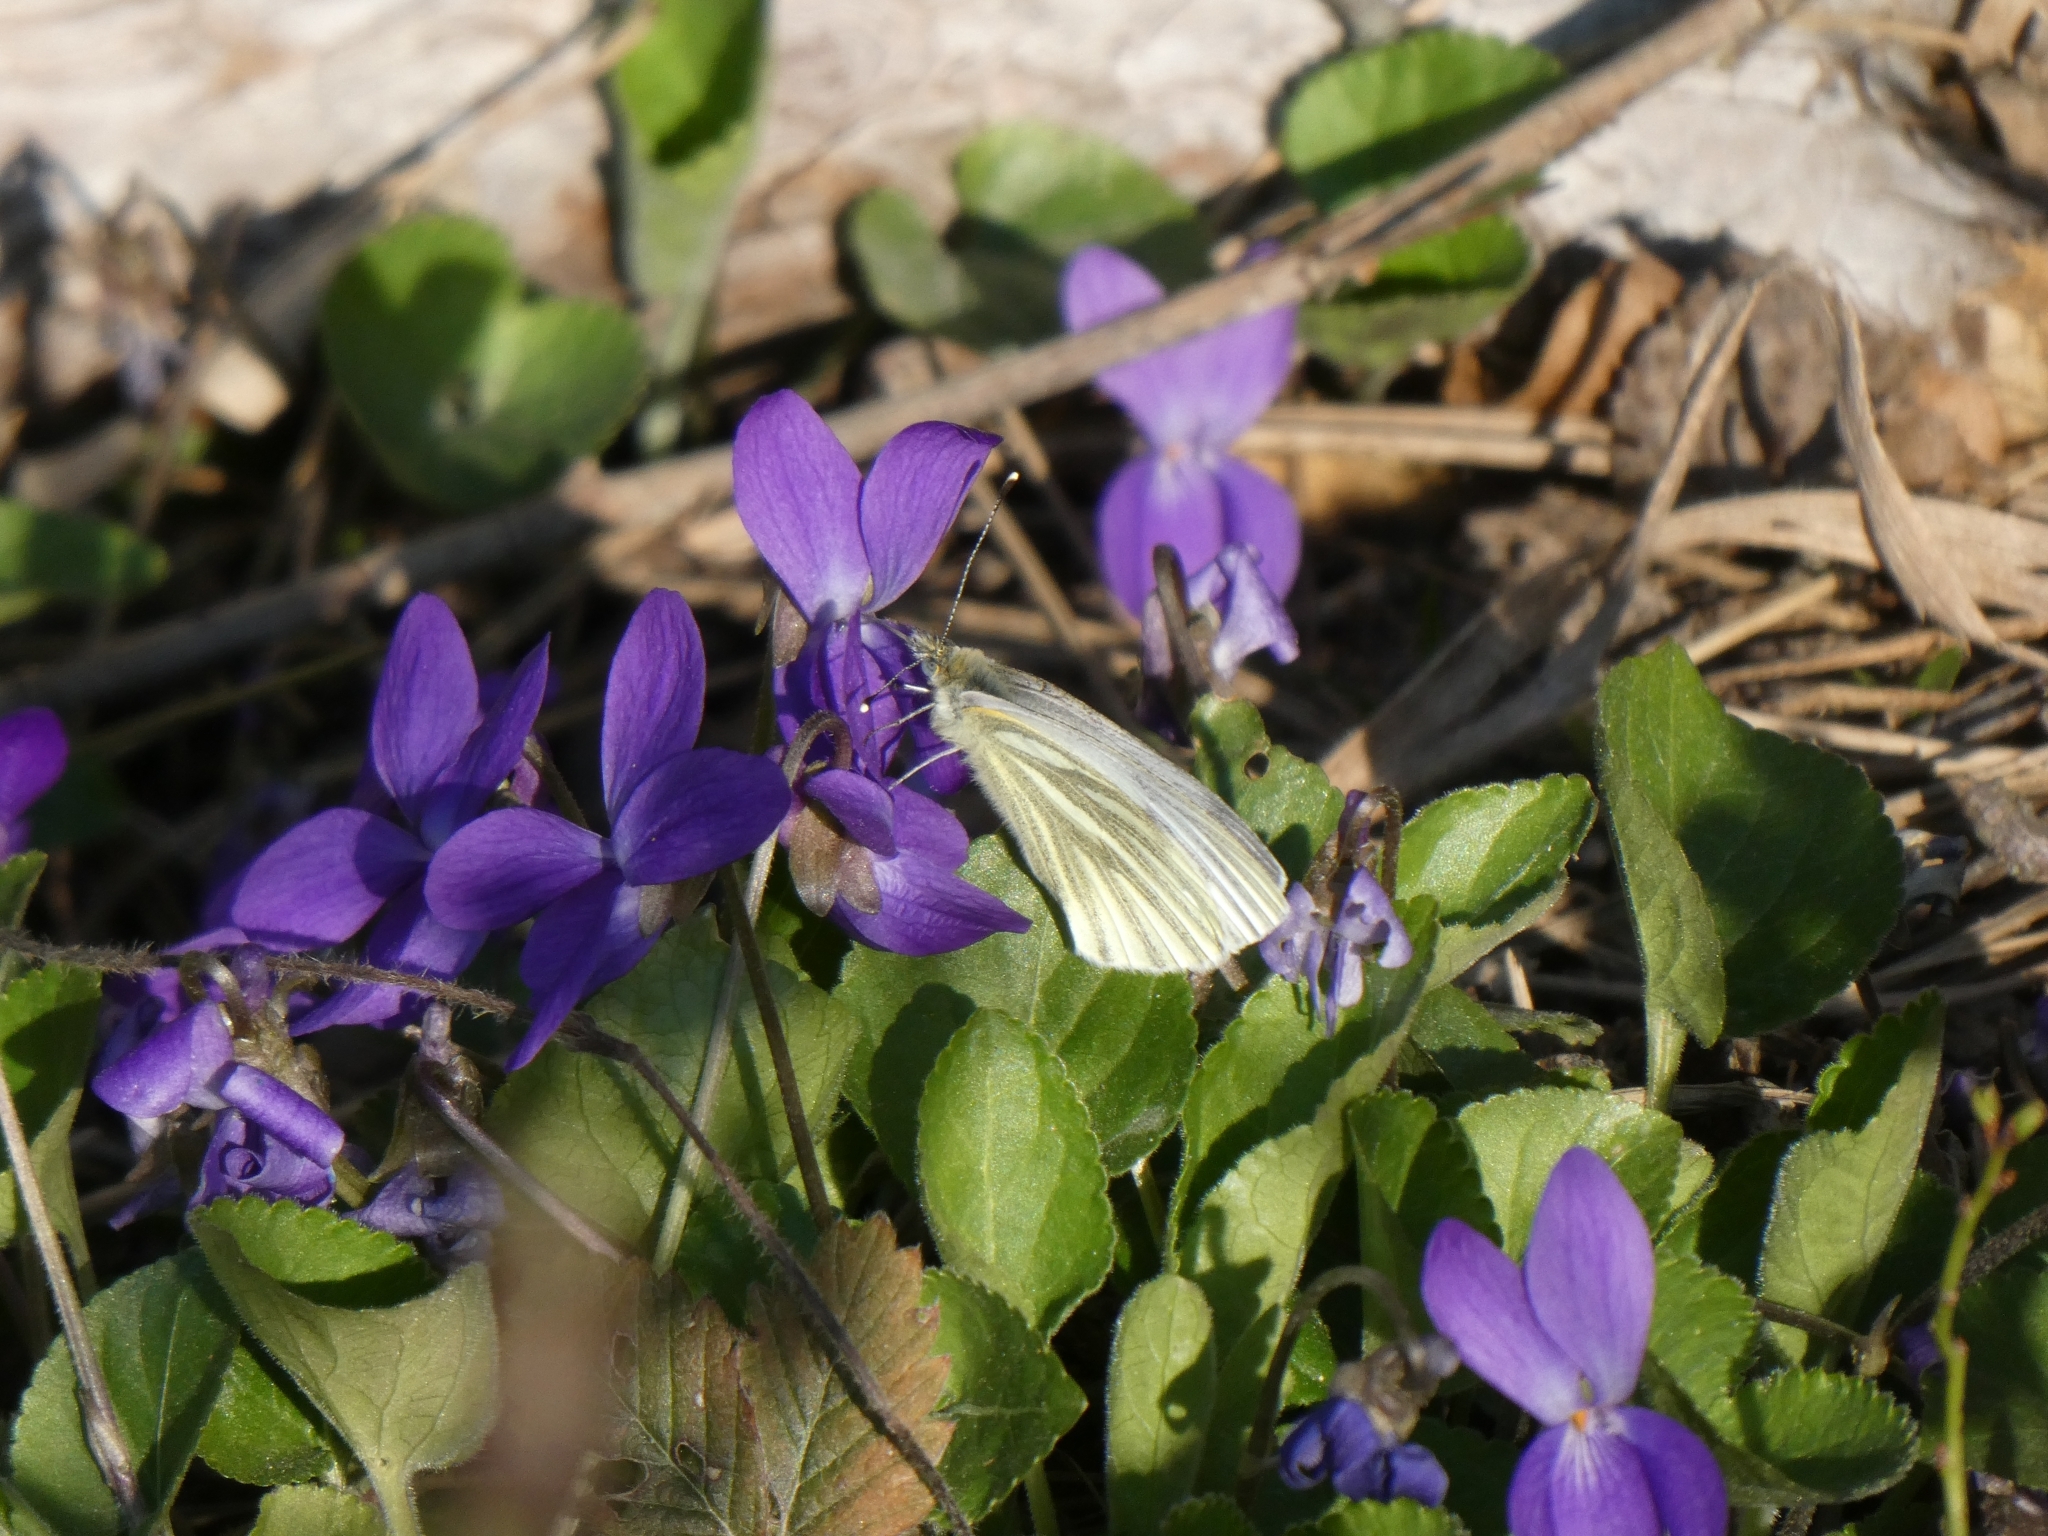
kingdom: Animalia
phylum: Arthropoda
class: Insecta
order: Lepidoptera
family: Pieridae
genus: Pieris
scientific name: Pieris napi
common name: Green-veined white
